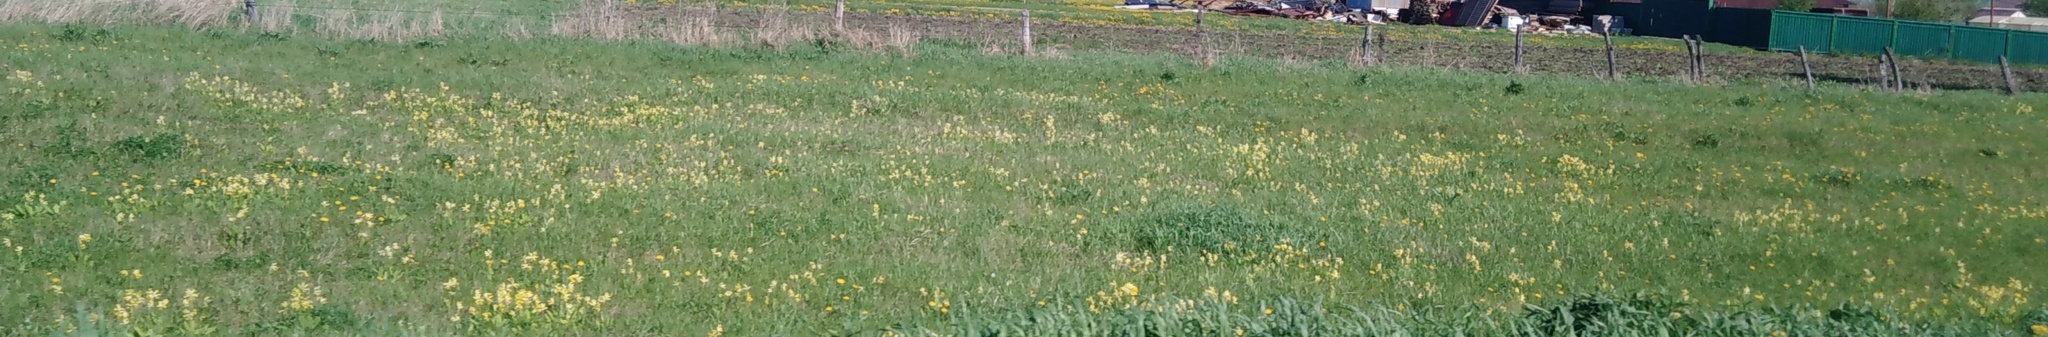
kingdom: Plantae
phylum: Tracheophyta
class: Magnoliopsida
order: Ericales
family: Primulaceae
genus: Primula
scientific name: Primula veris
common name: Cowslip
